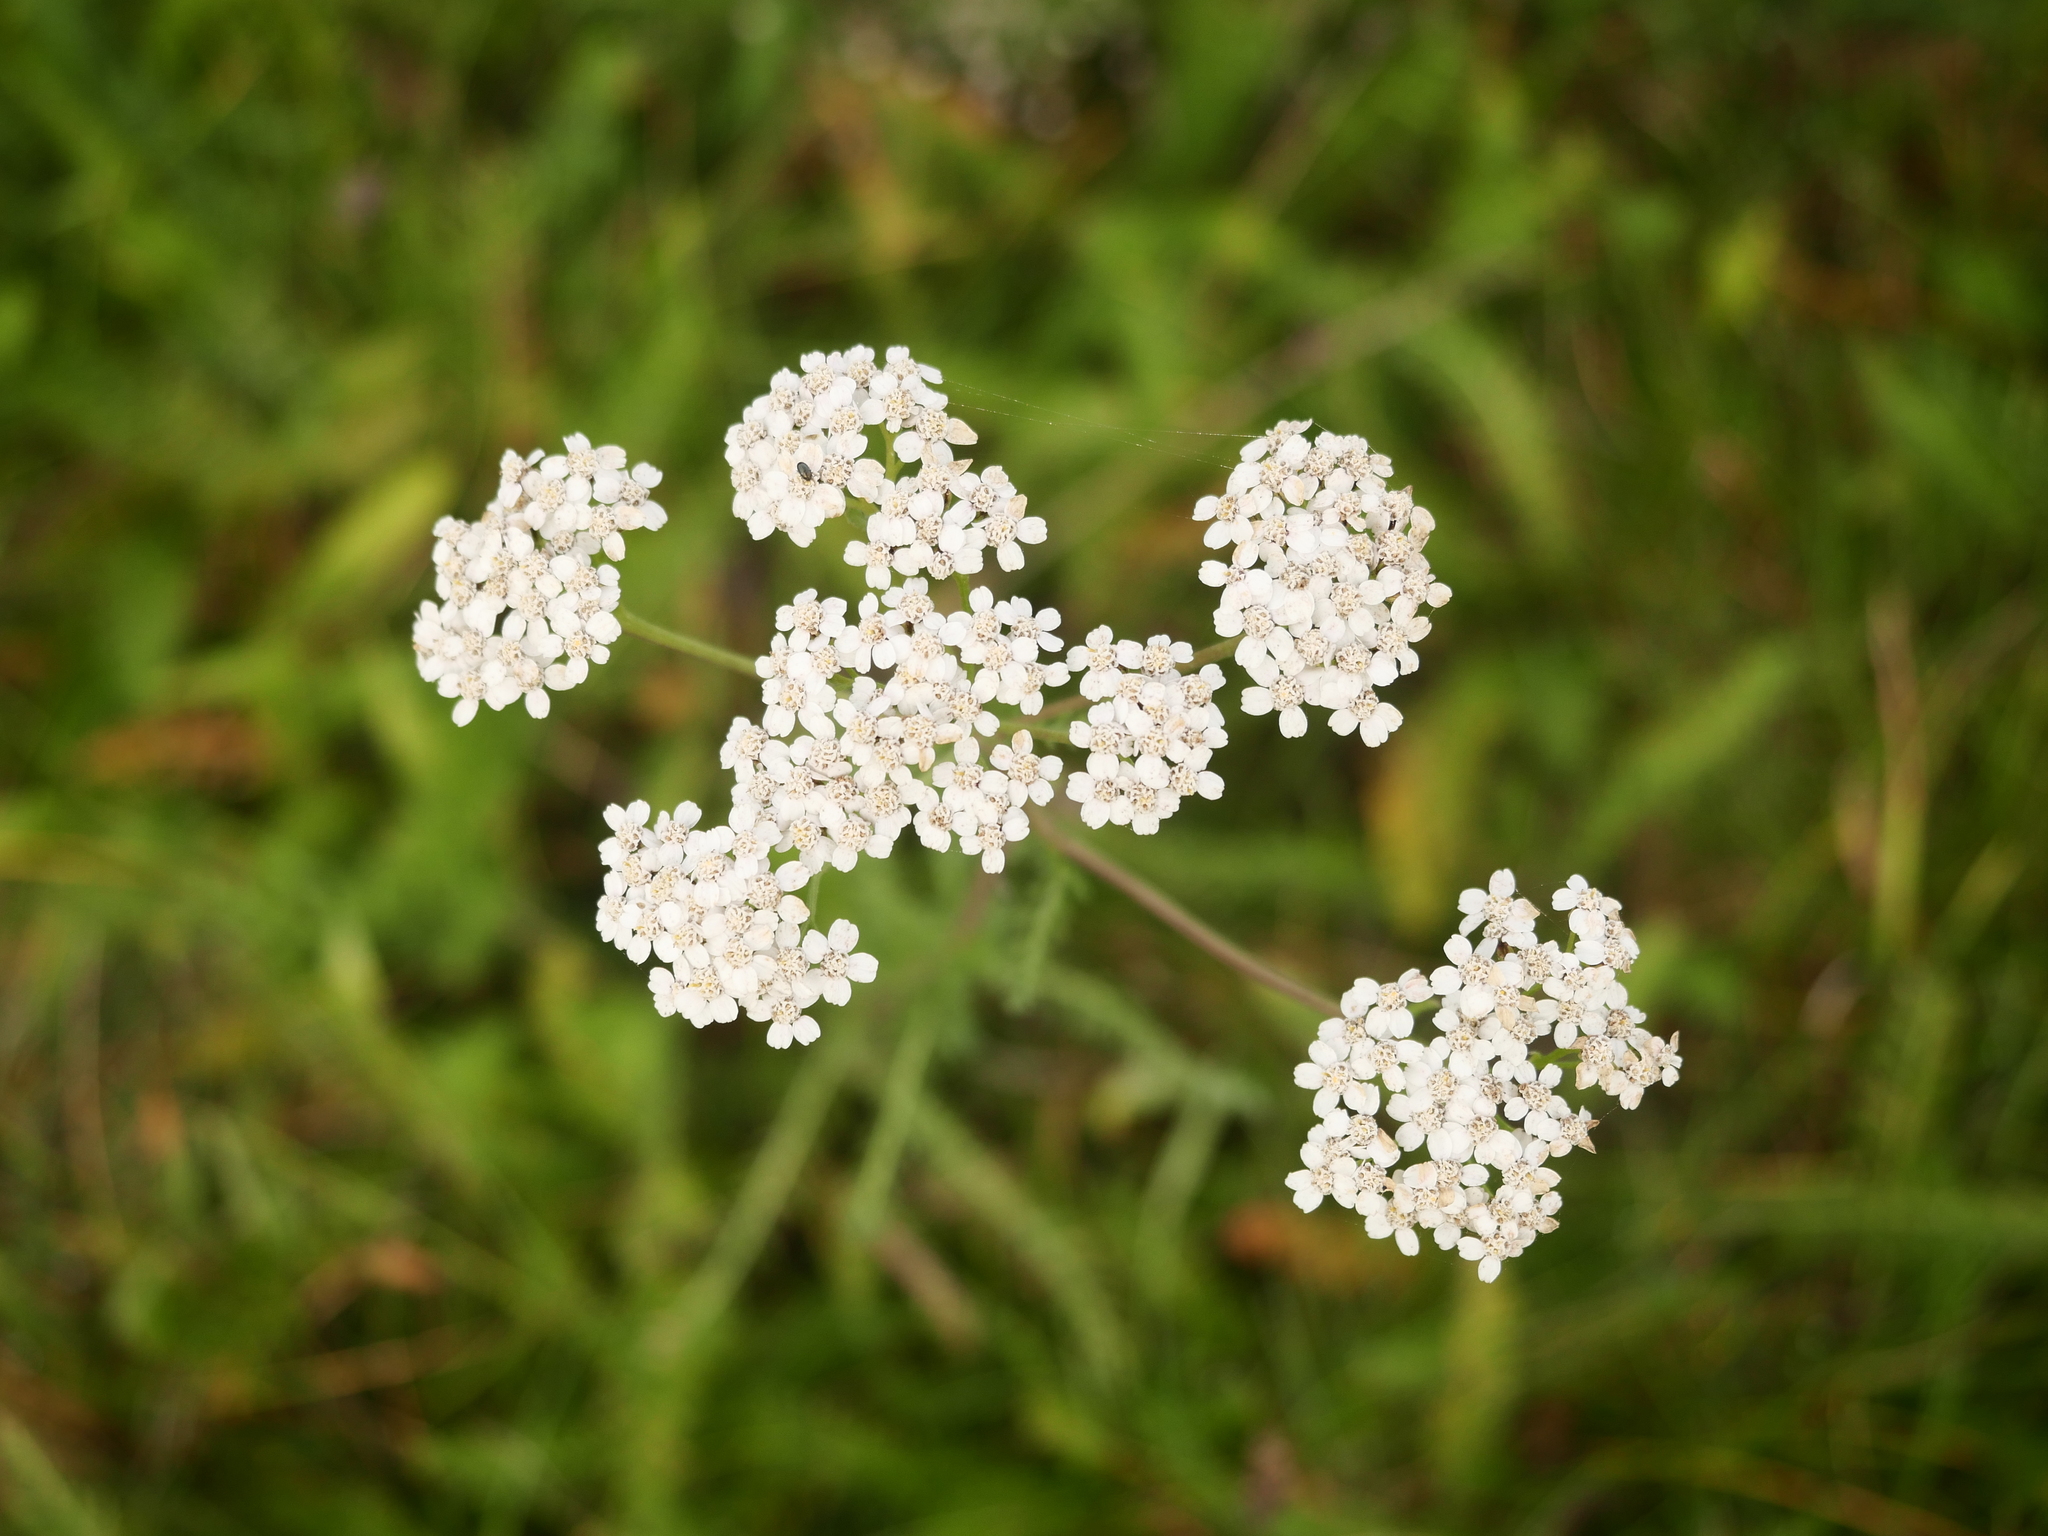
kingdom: Plantae
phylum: Tracheophyta
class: Magnoliopsida
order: Asterales
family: Asteraceae
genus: Achillea
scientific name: Achillea millefolium
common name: Yarrow
